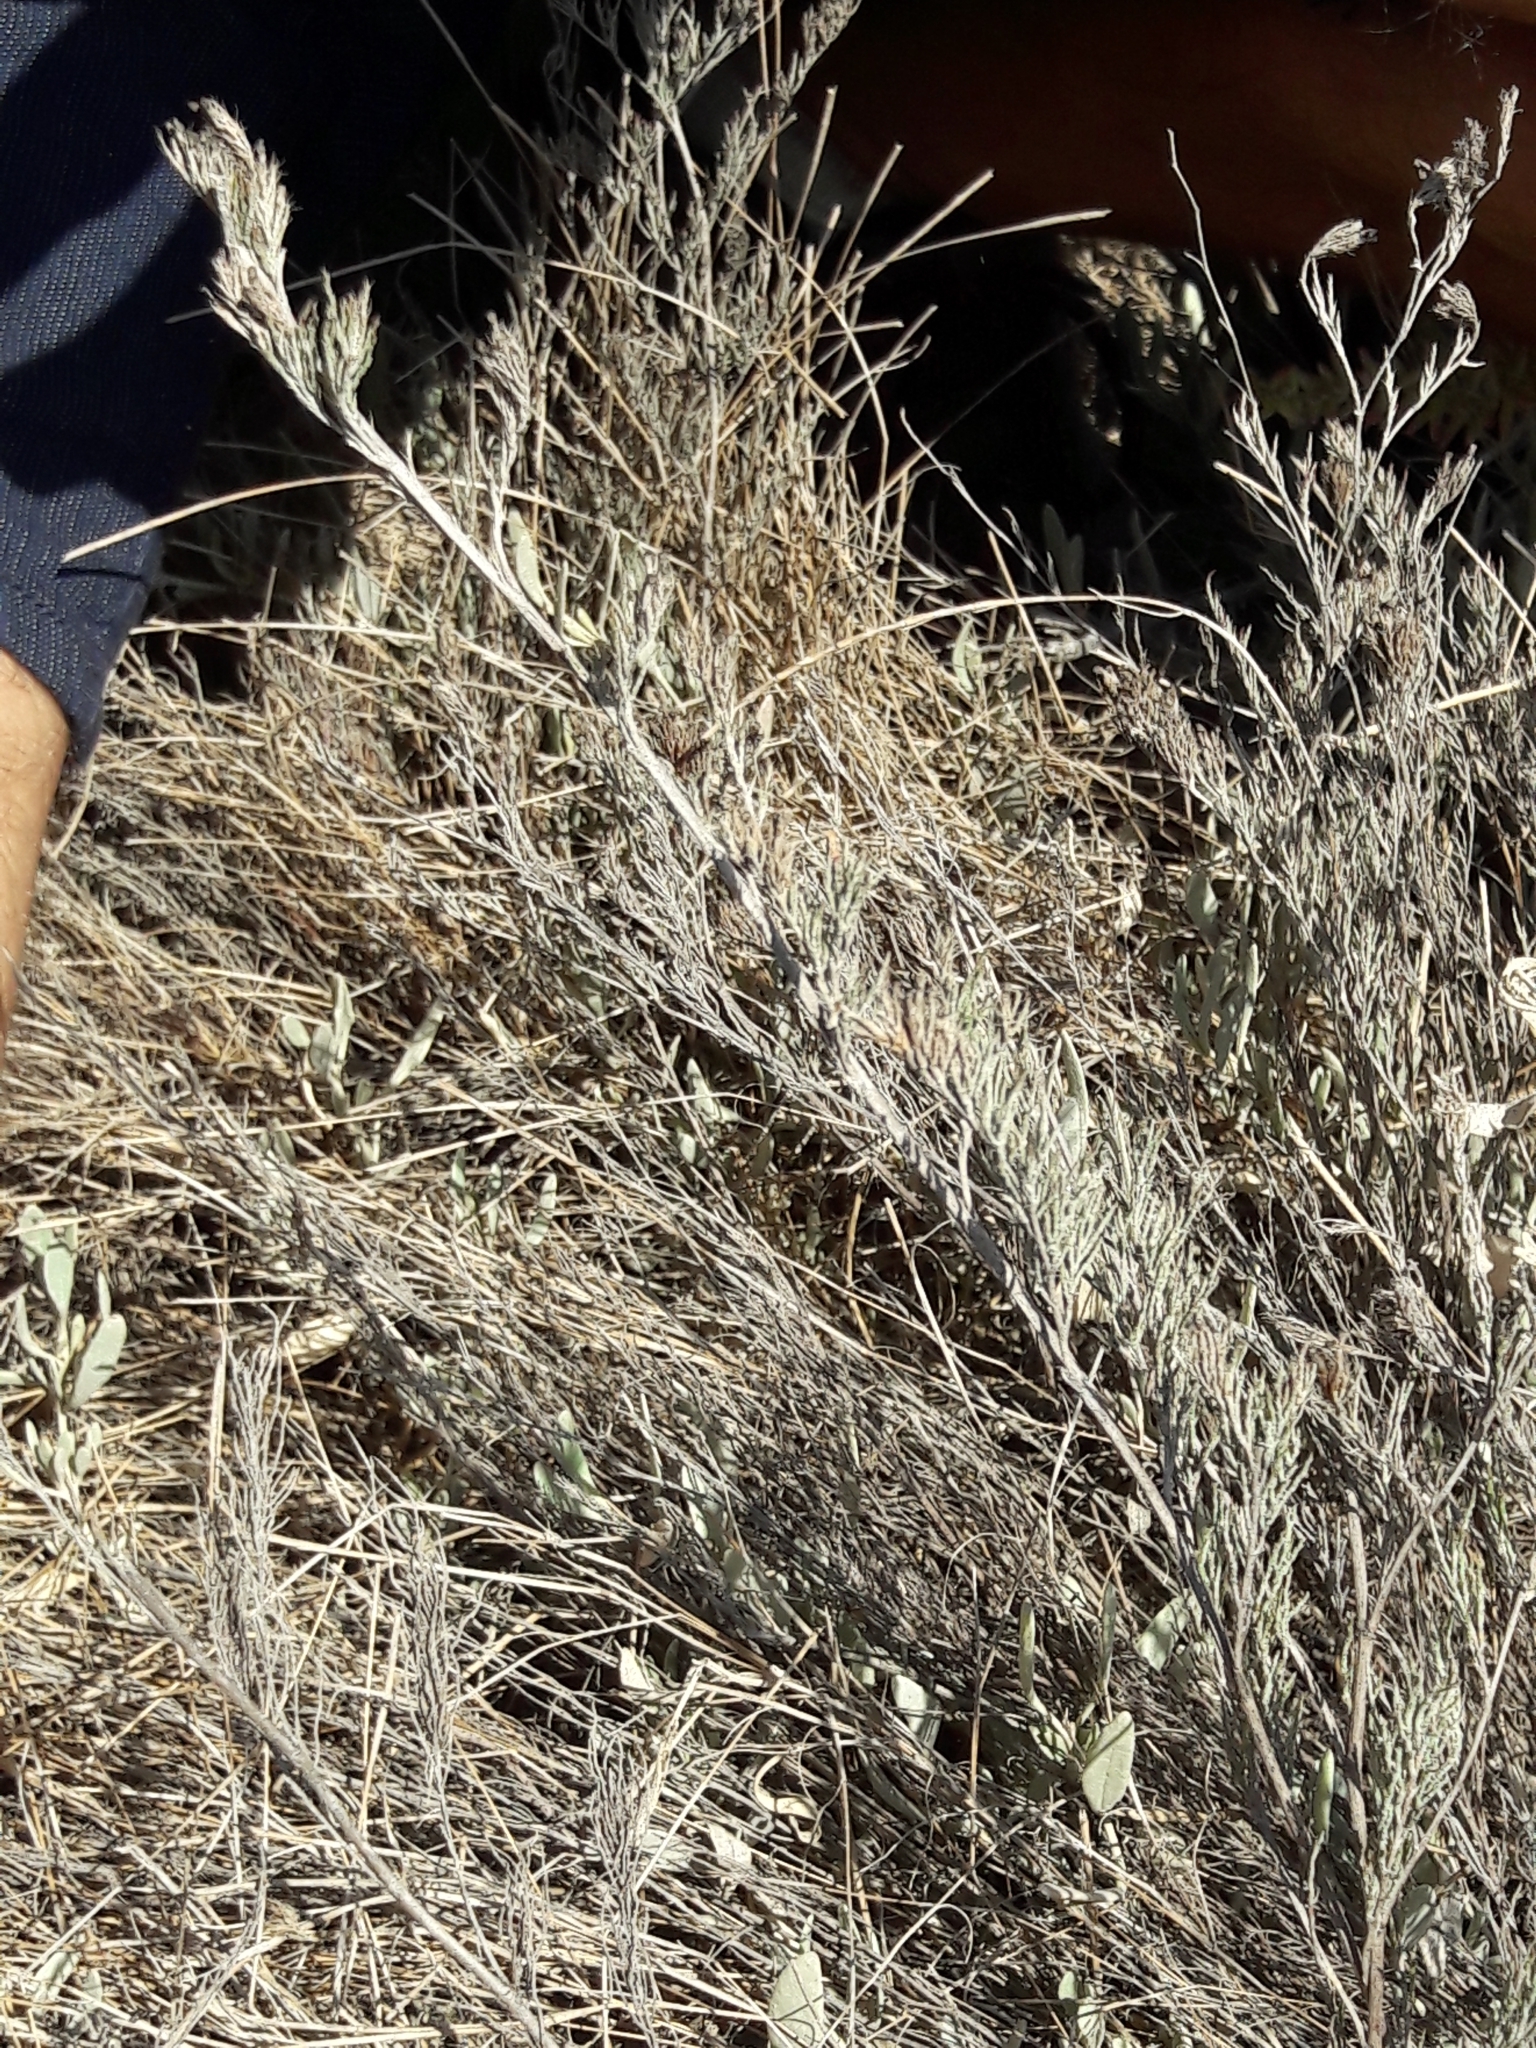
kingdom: Plantae
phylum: Tracheophyta
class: Magnoliopsida
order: Caryophyllales
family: Plumbaginaceae
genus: Myriolimon
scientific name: Myriolimon ferulaceum
